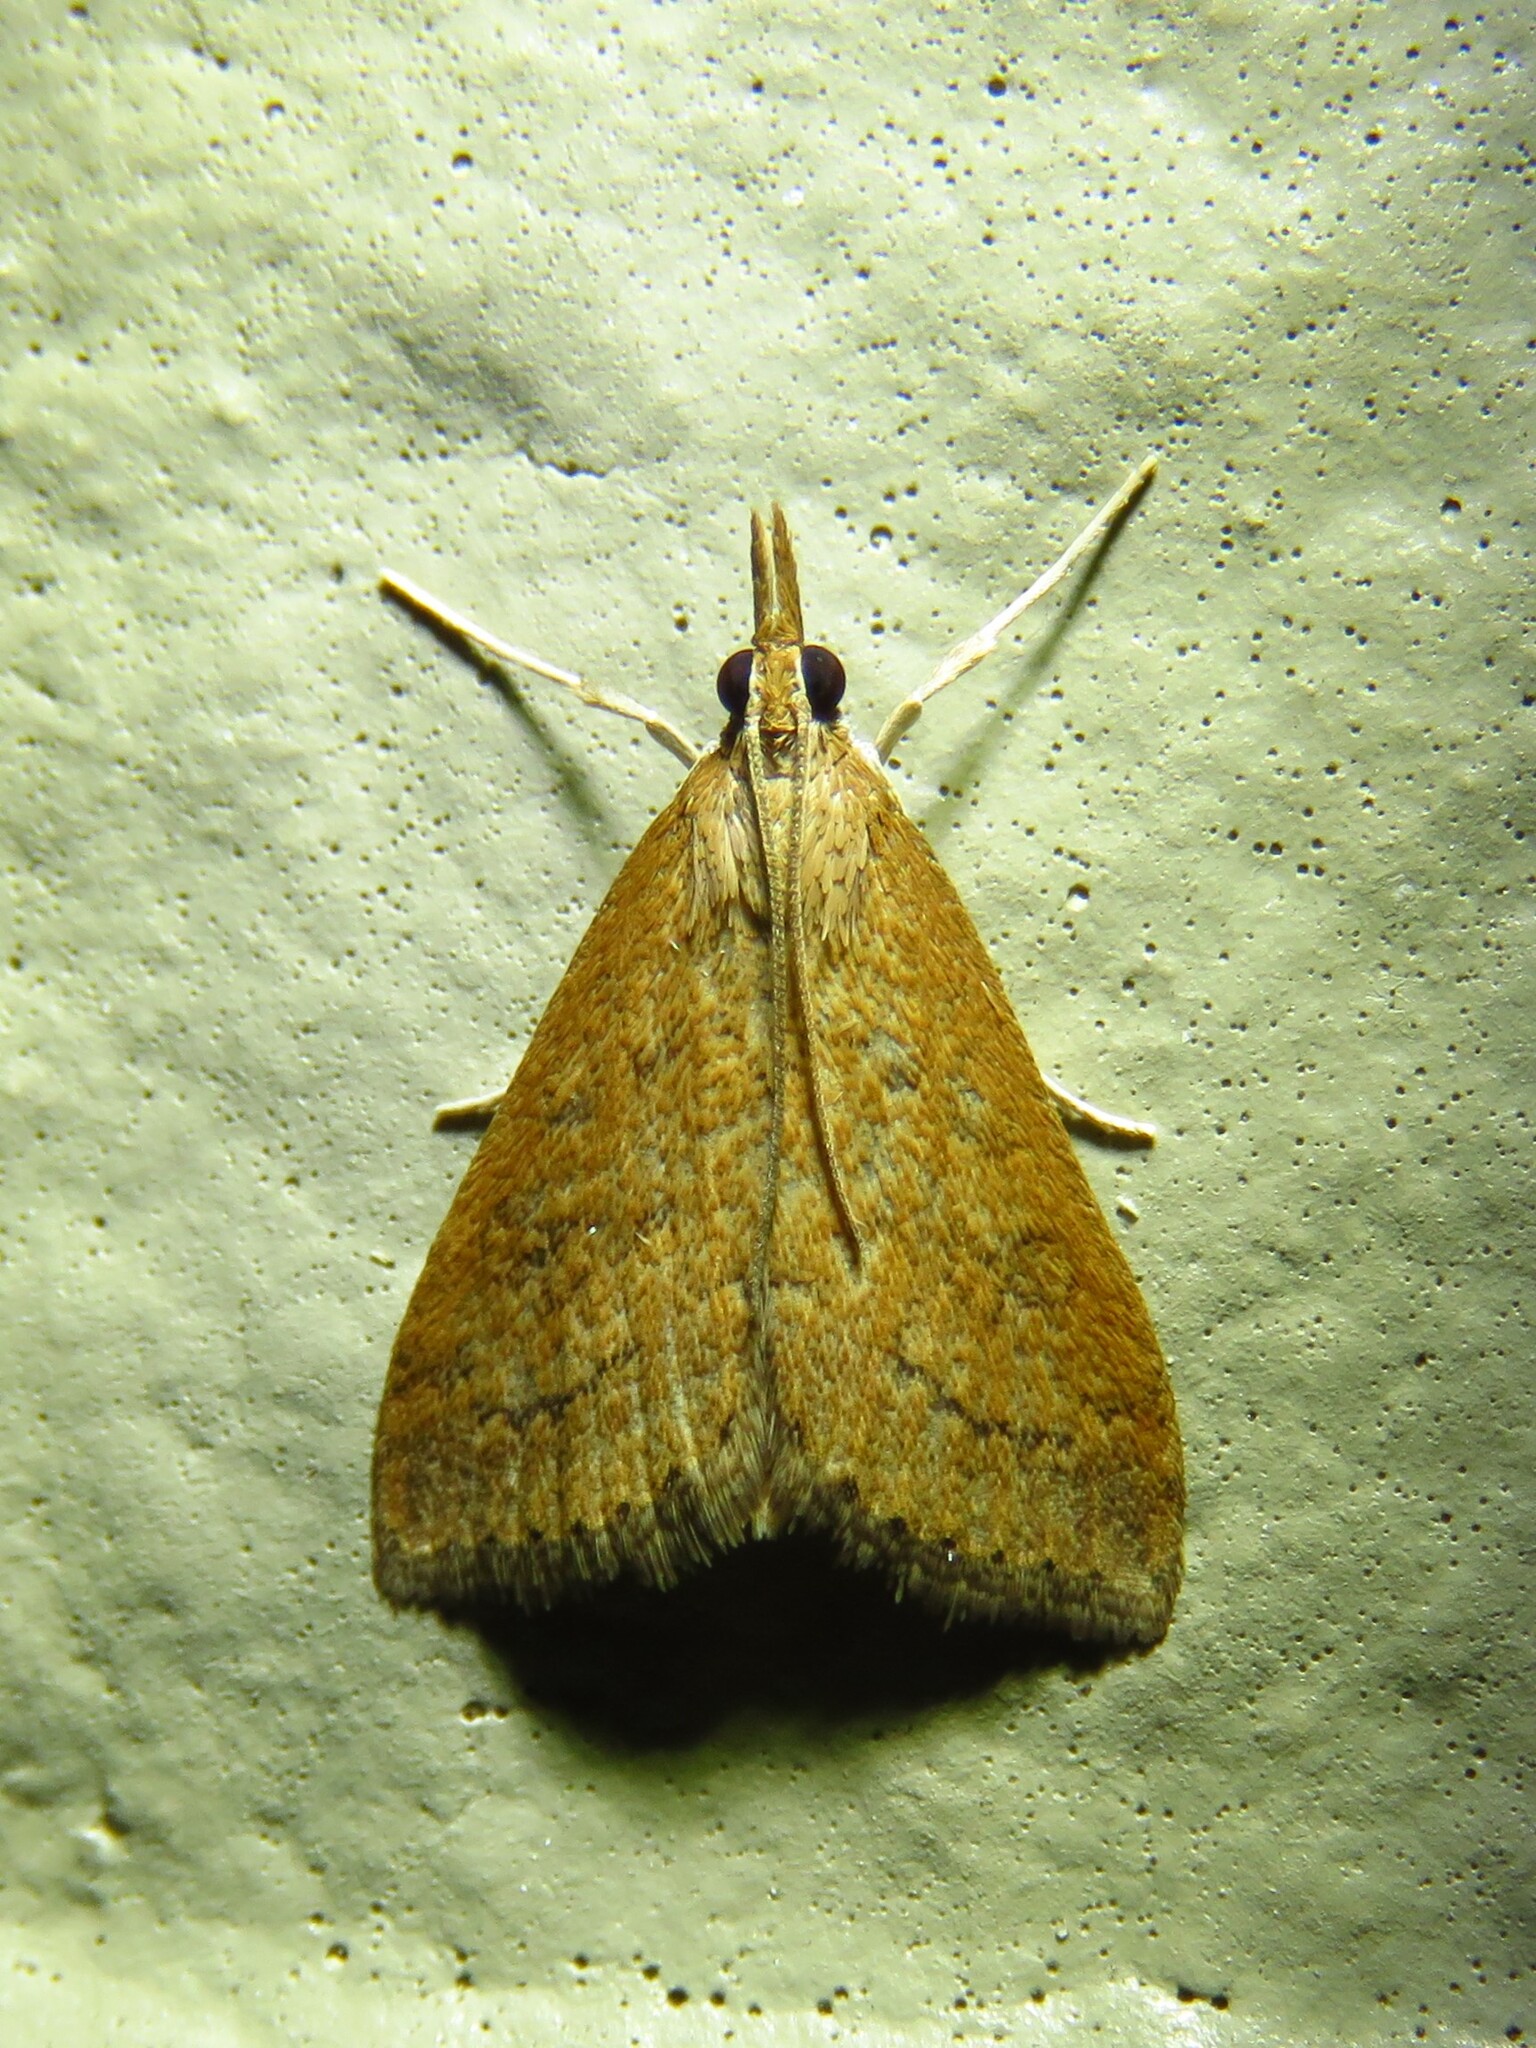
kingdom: Animalia
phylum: Arthropoda
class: Insecta
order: Lepidoptera
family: Crambidae
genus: Udea
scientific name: Udea rubigalis
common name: Celery leaftier moth
